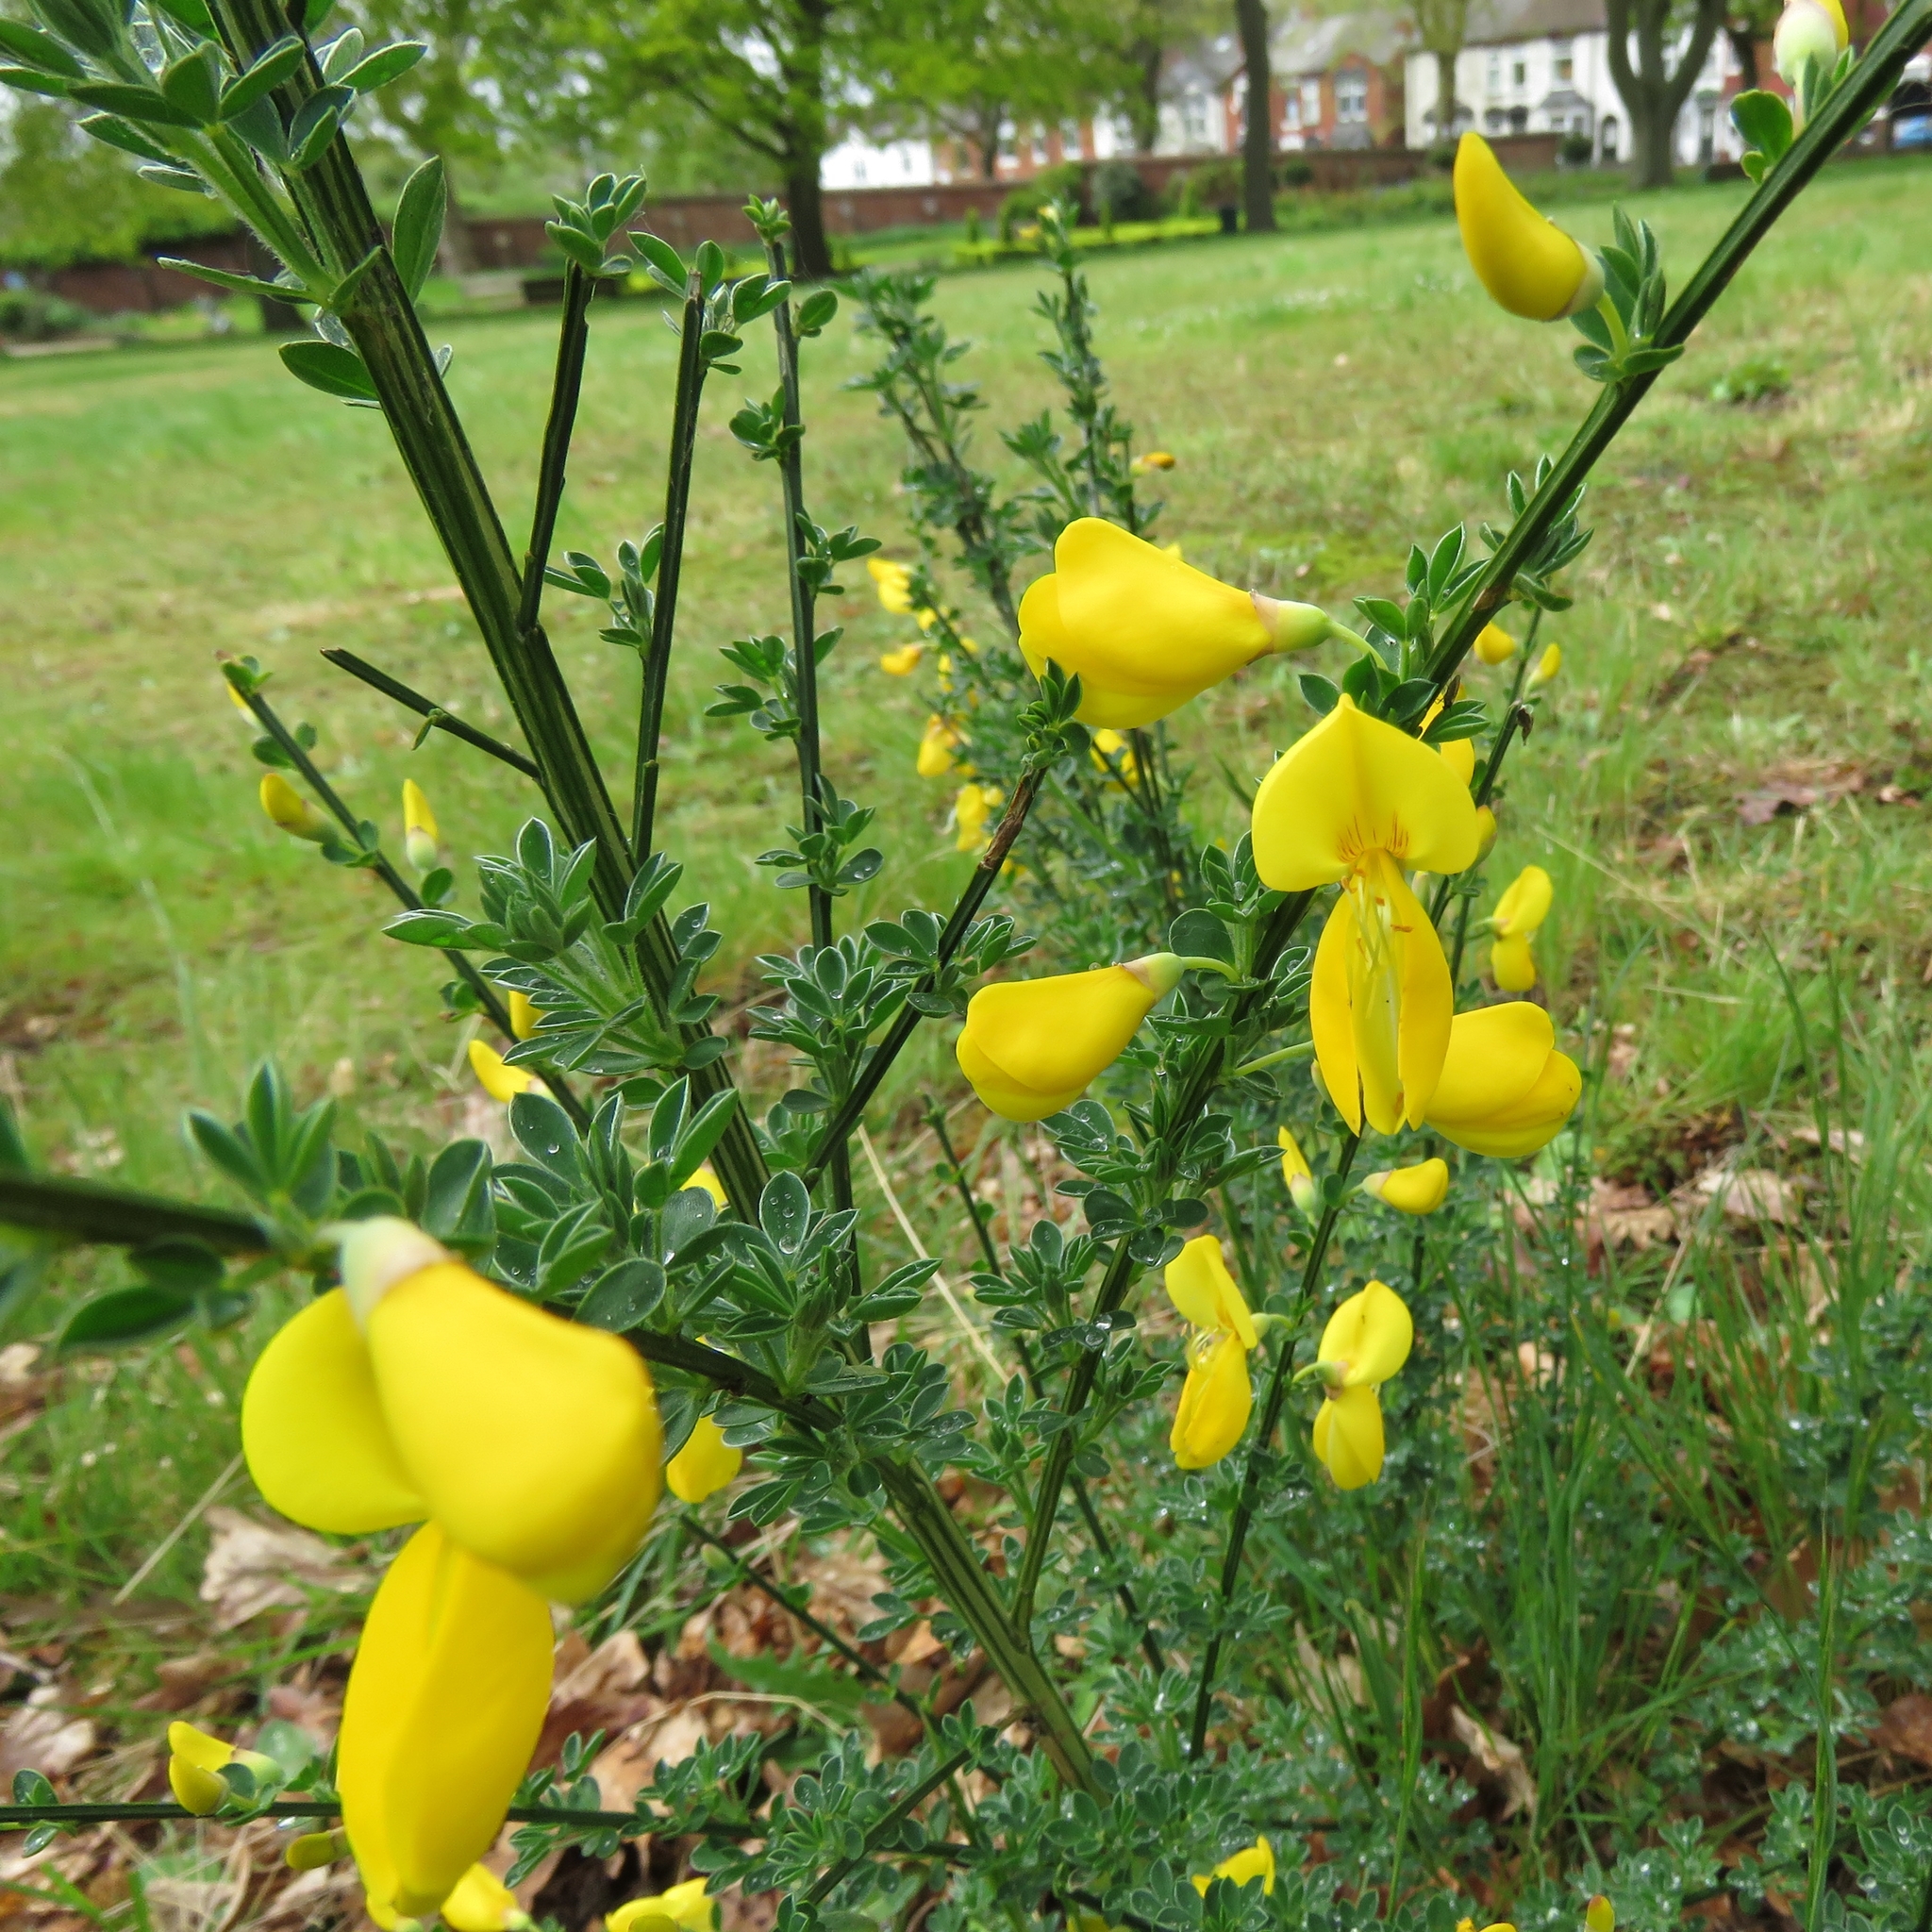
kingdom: Plantae
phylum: Tracheophyta
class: Magnoliopsida
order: Fabales
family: Fabaceae
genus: Cytisus
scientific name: Cytisus scoparius
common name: Scotch broom
